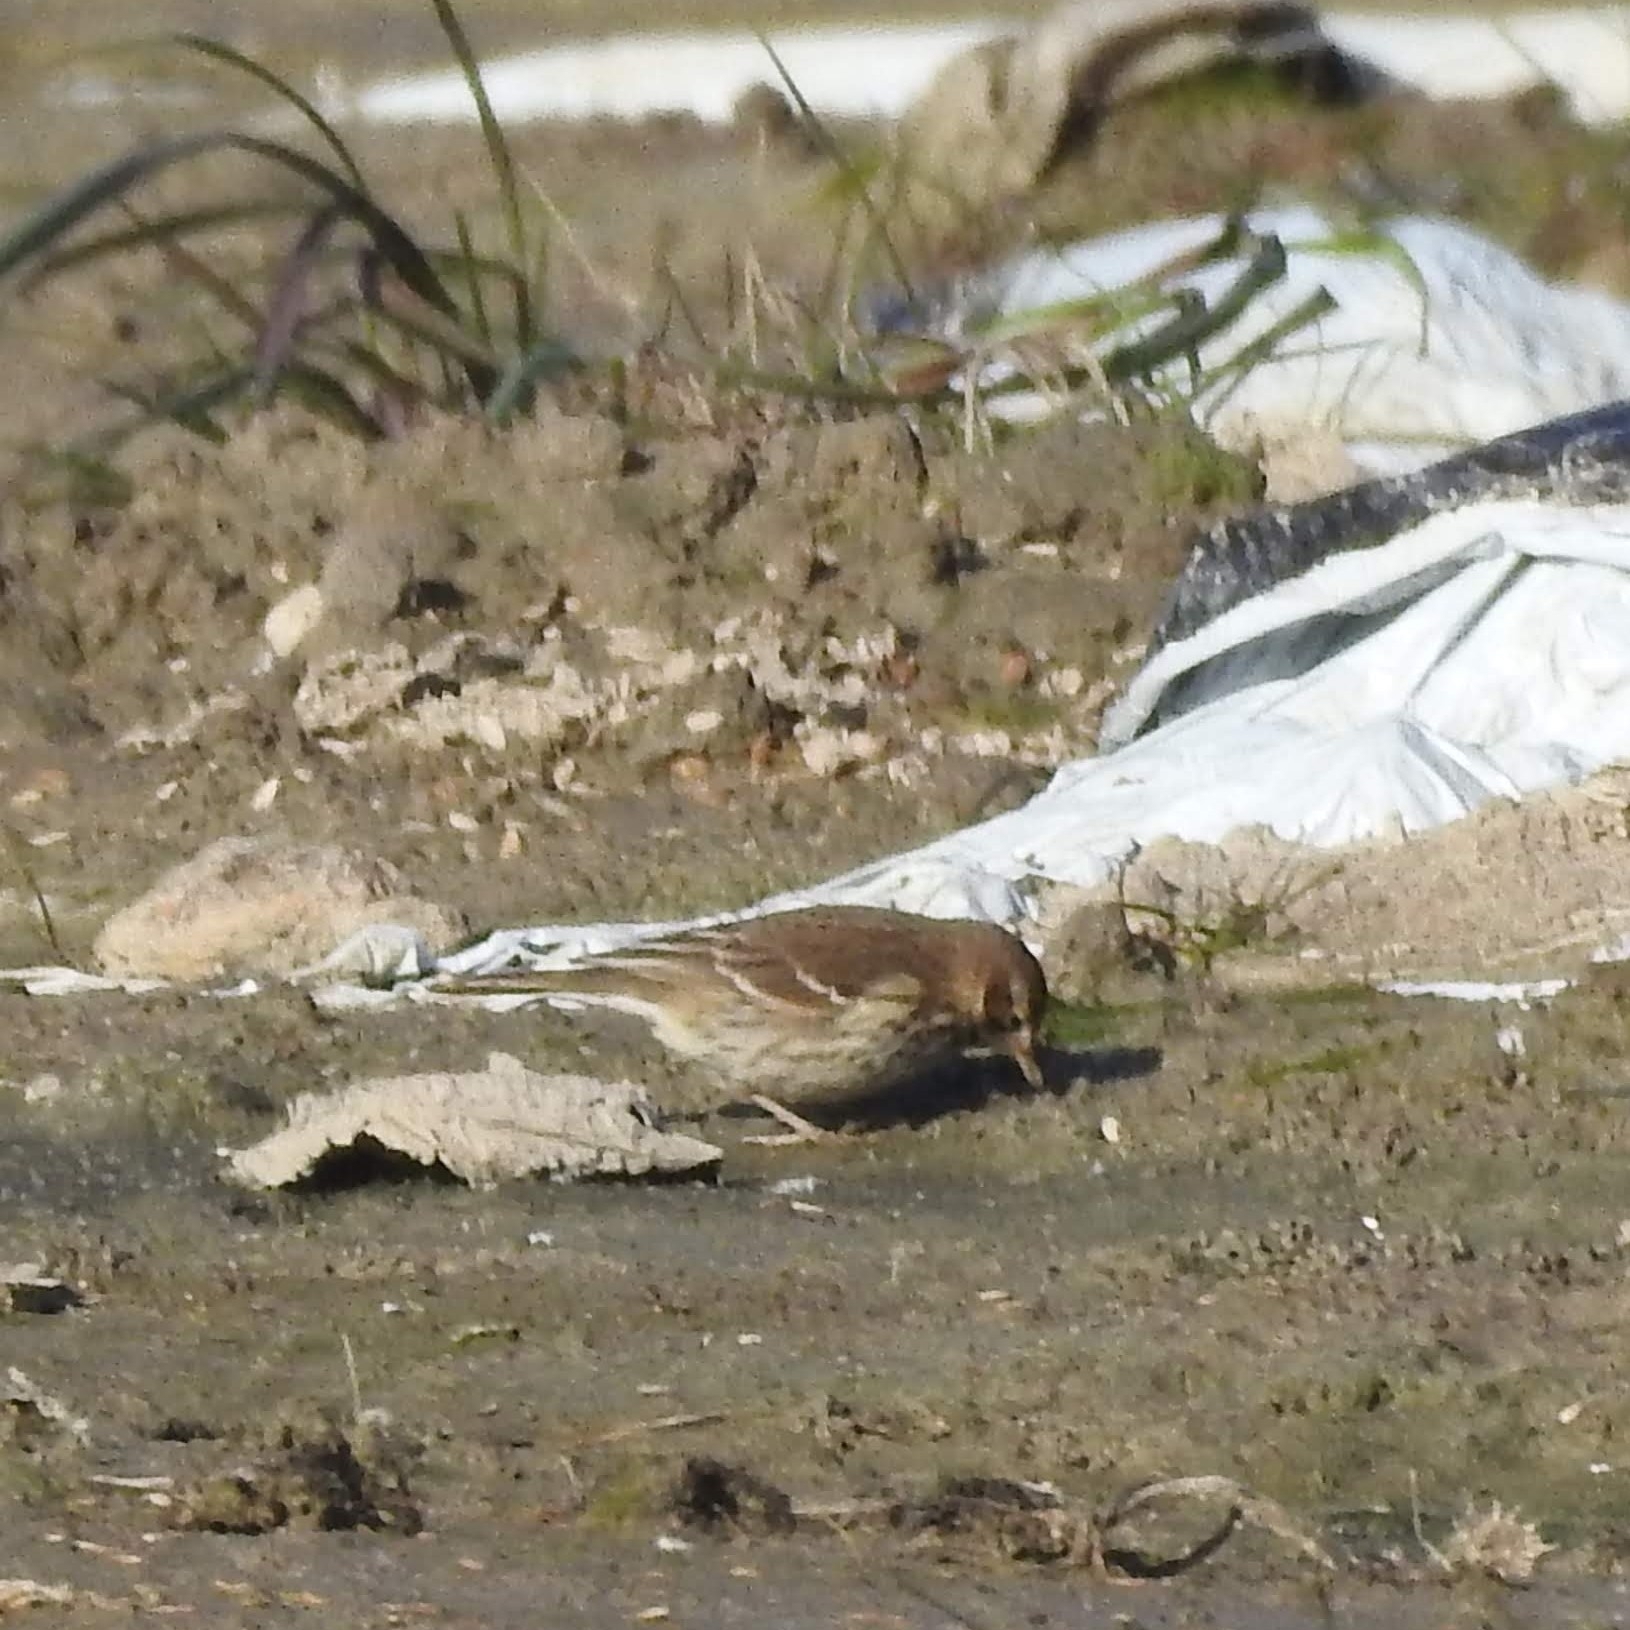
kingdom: Animalia
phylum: Chordata
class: Aves
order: Passeriformes
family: Motacillidae
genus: Anthus
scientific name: Anthus rubescens
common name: Buff-bellied pipit
